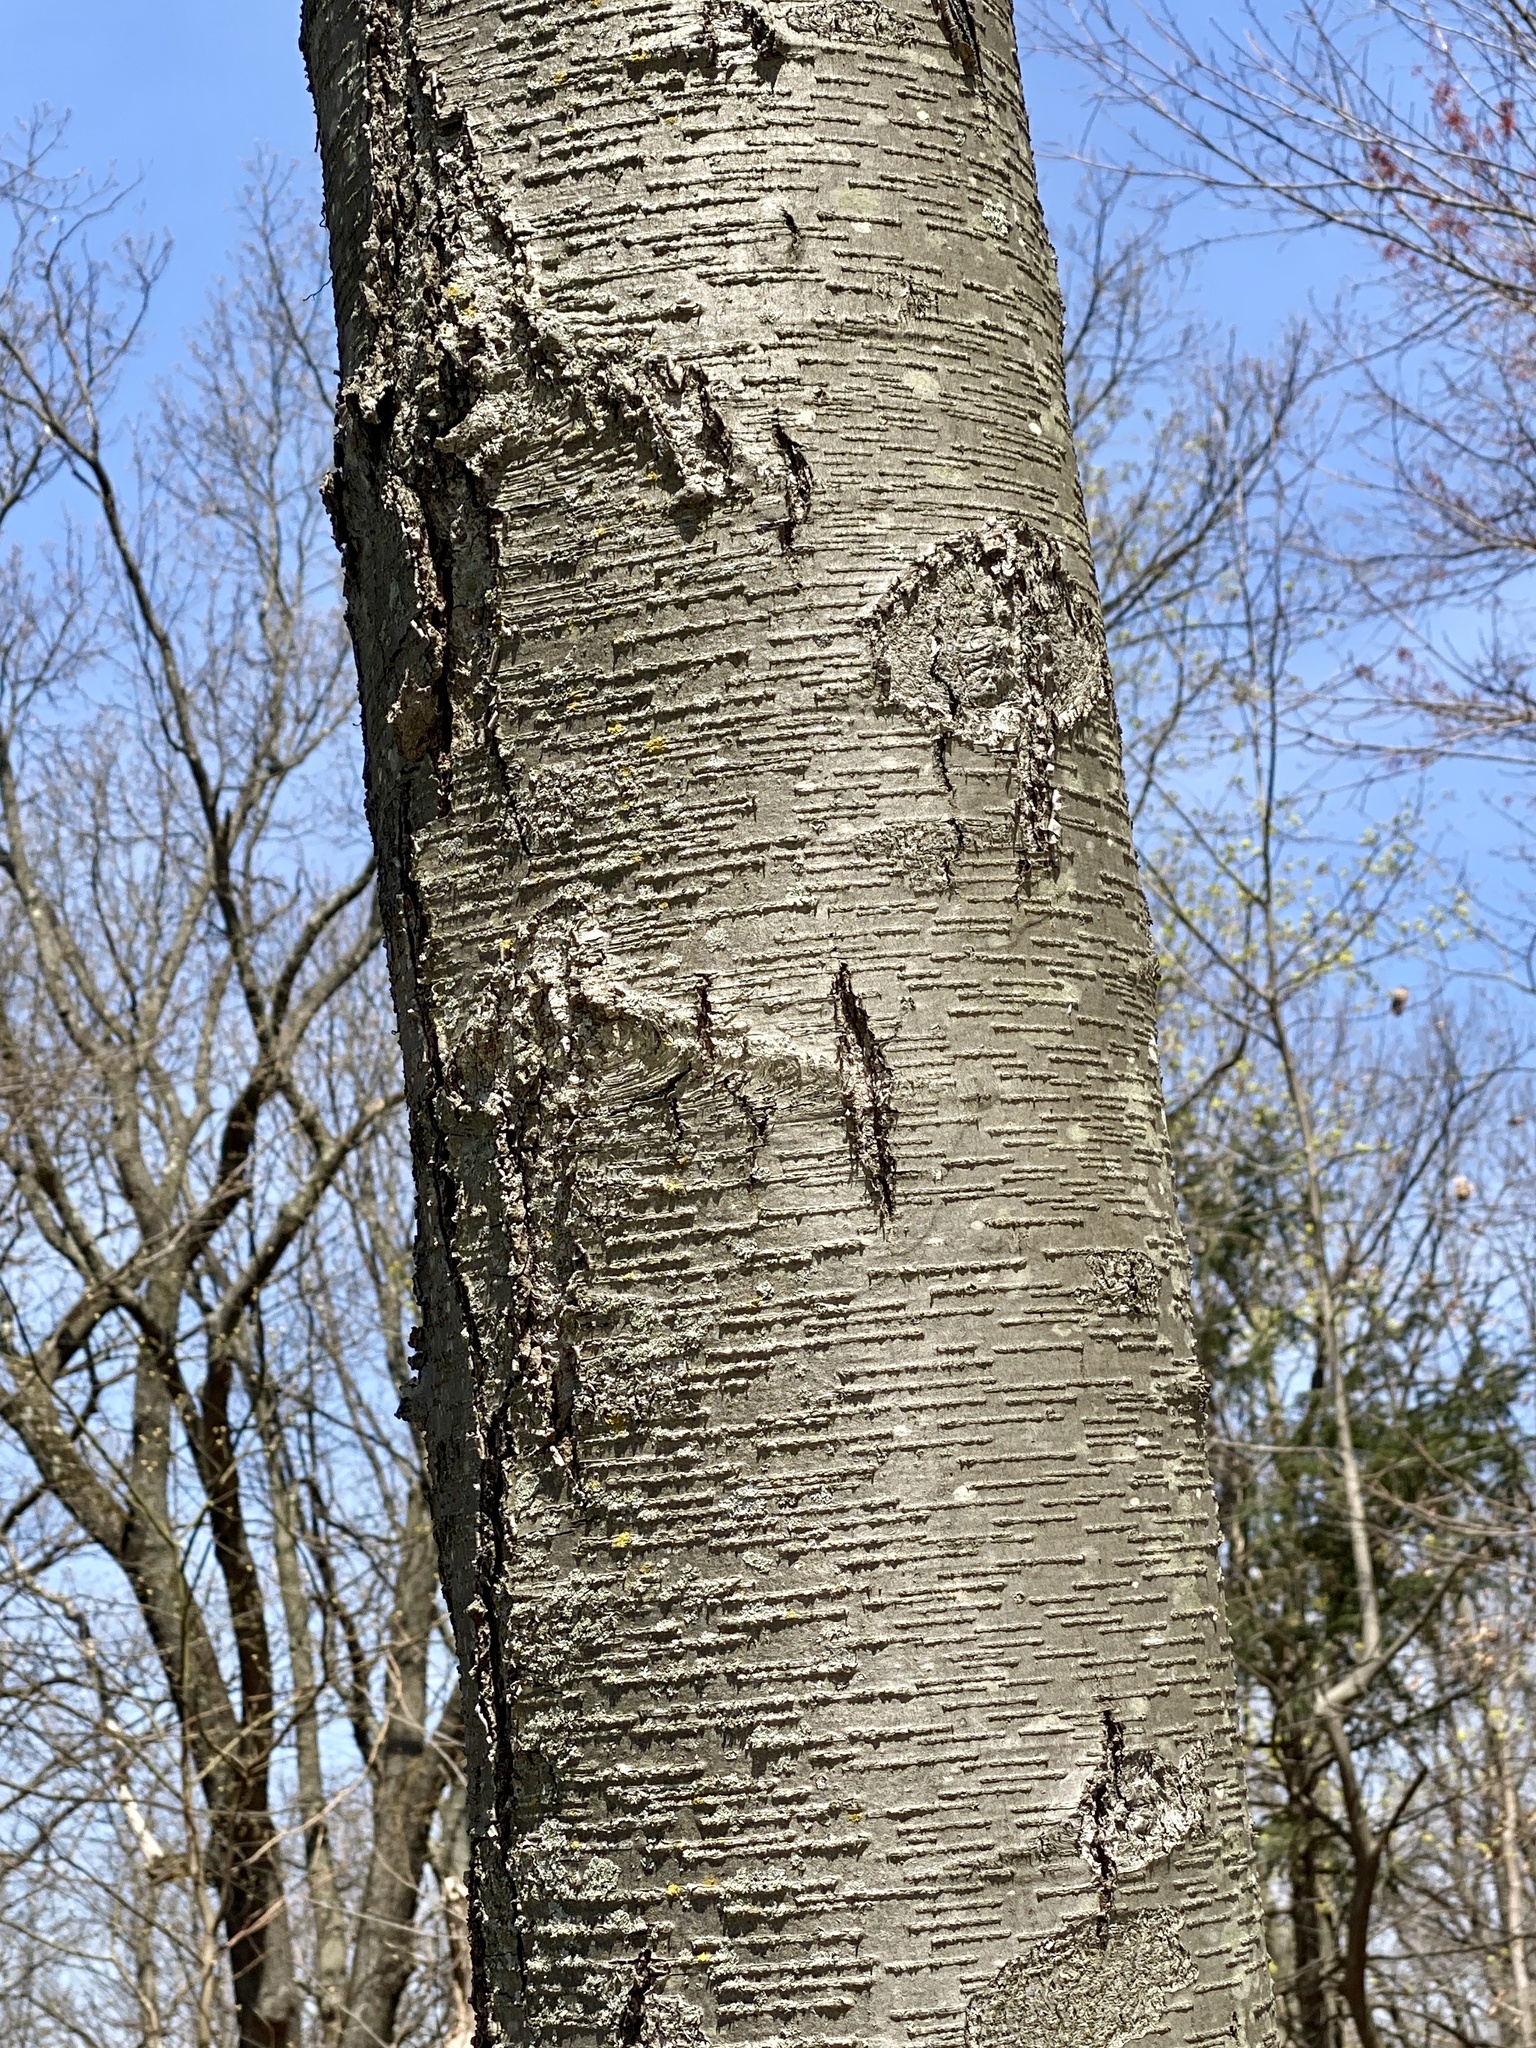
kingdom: Plantae
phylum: Tracheophyta
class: Magnoliopsida
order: Fagales
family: Betulaceae
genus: Betula
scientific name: Betula lenta
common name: Black birch
